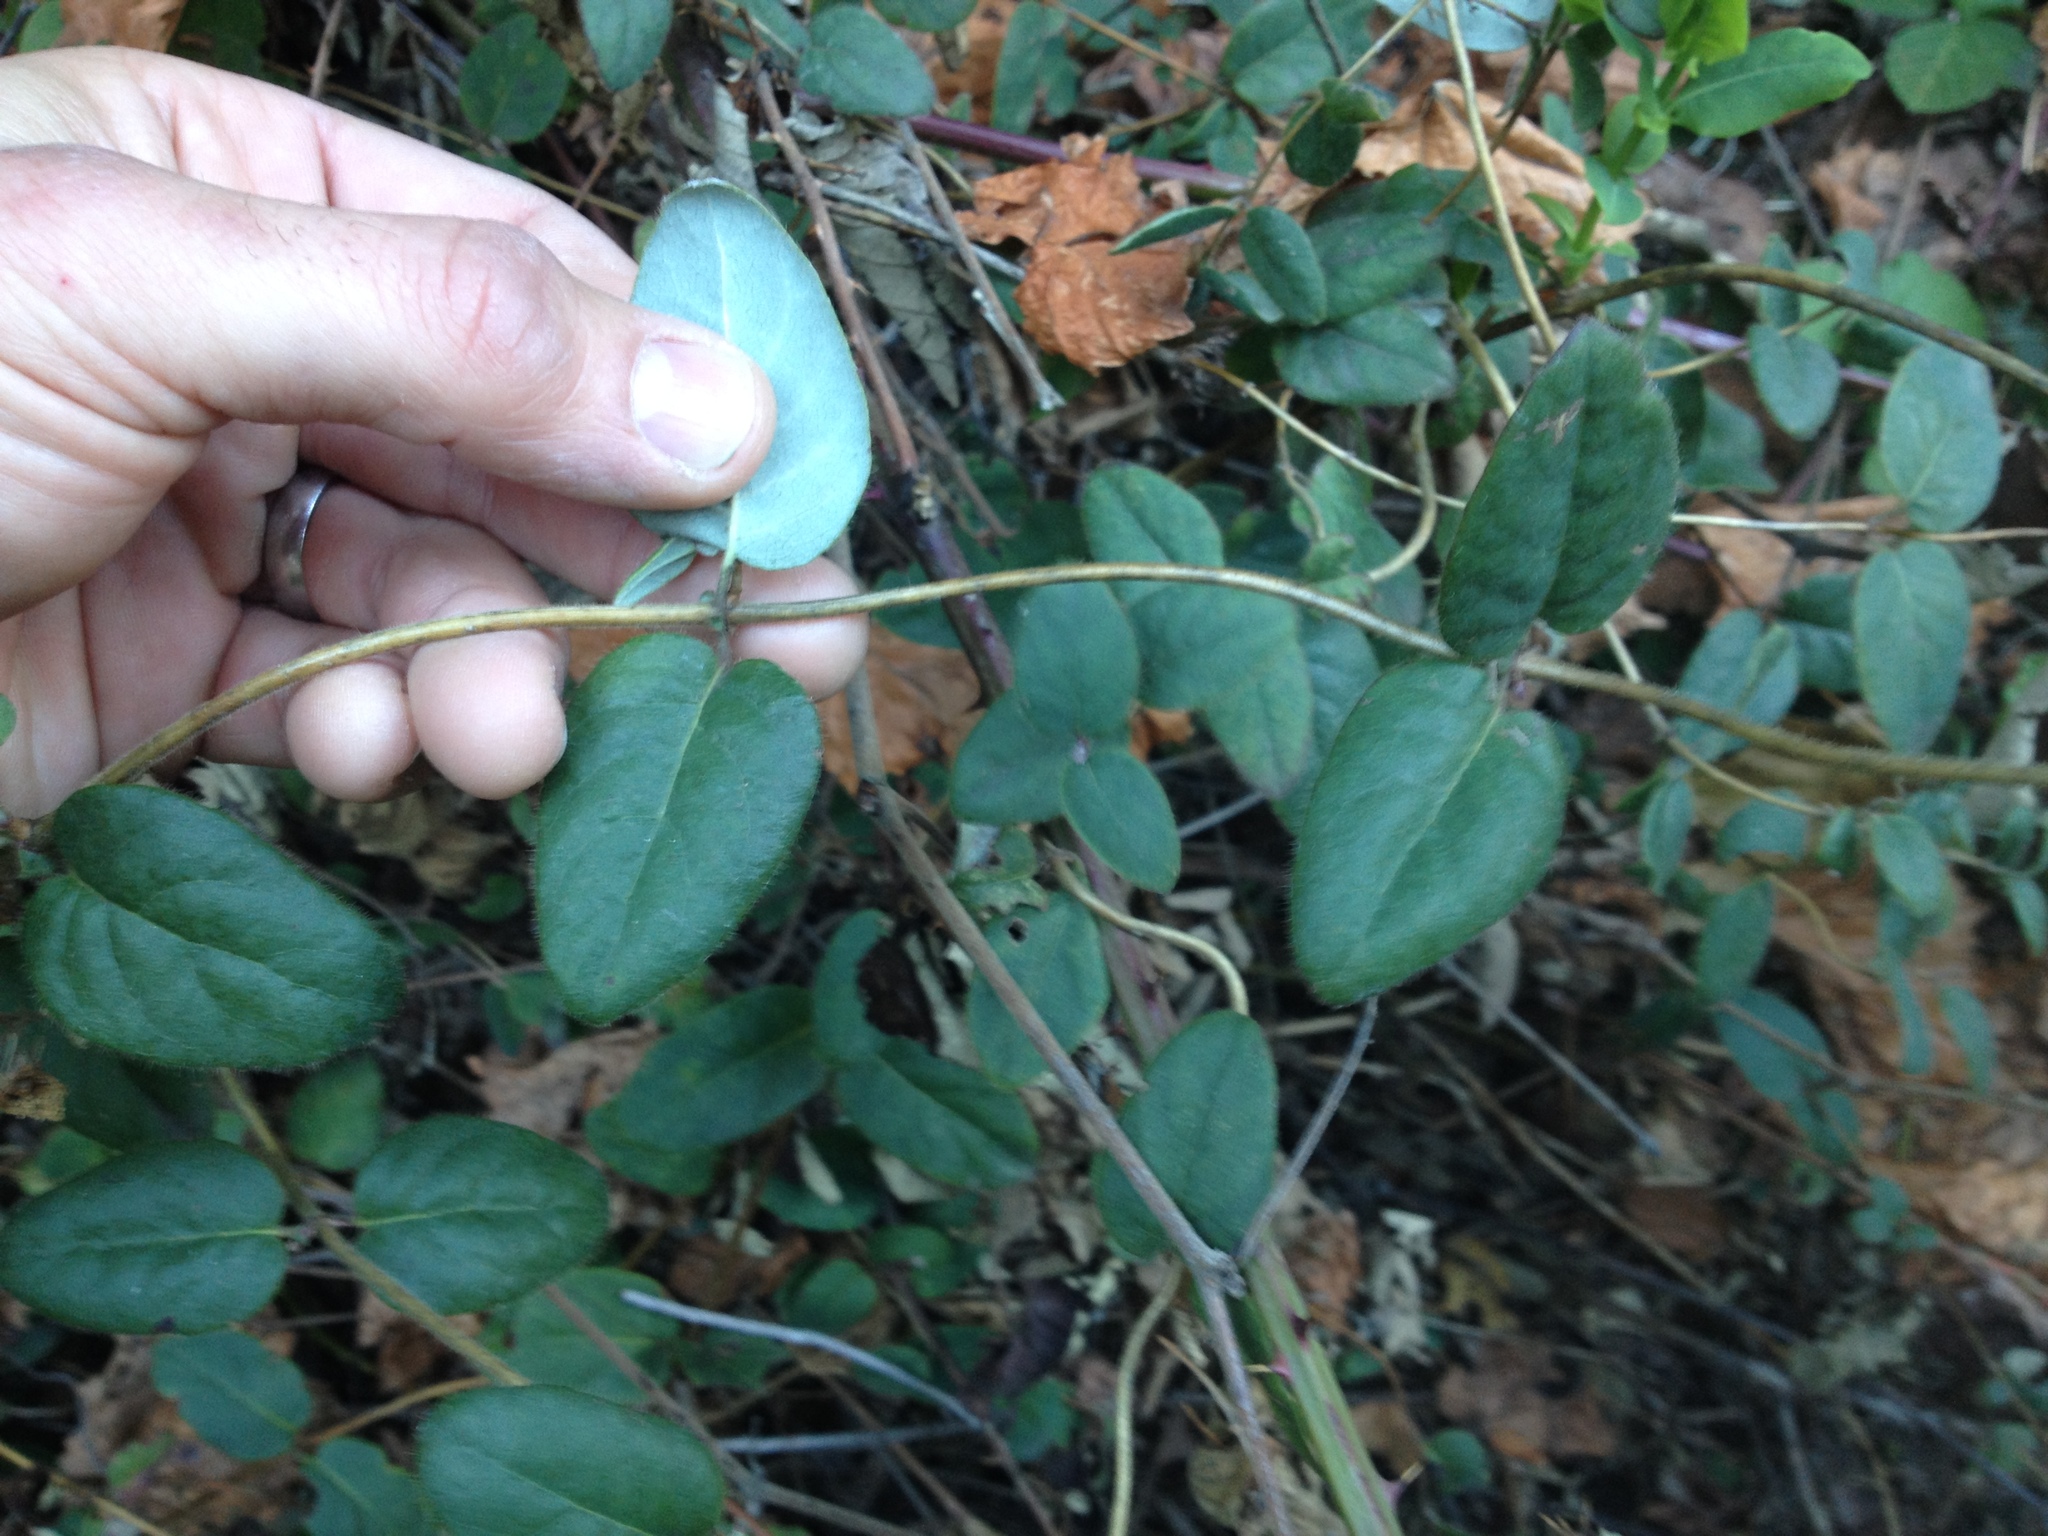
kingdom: Plantae
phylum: Tracheophyta
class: Magnoliopsida
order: Dipsacales
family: Caprifoliaceae
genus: Lonicera
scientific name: Lonicera hispidula
